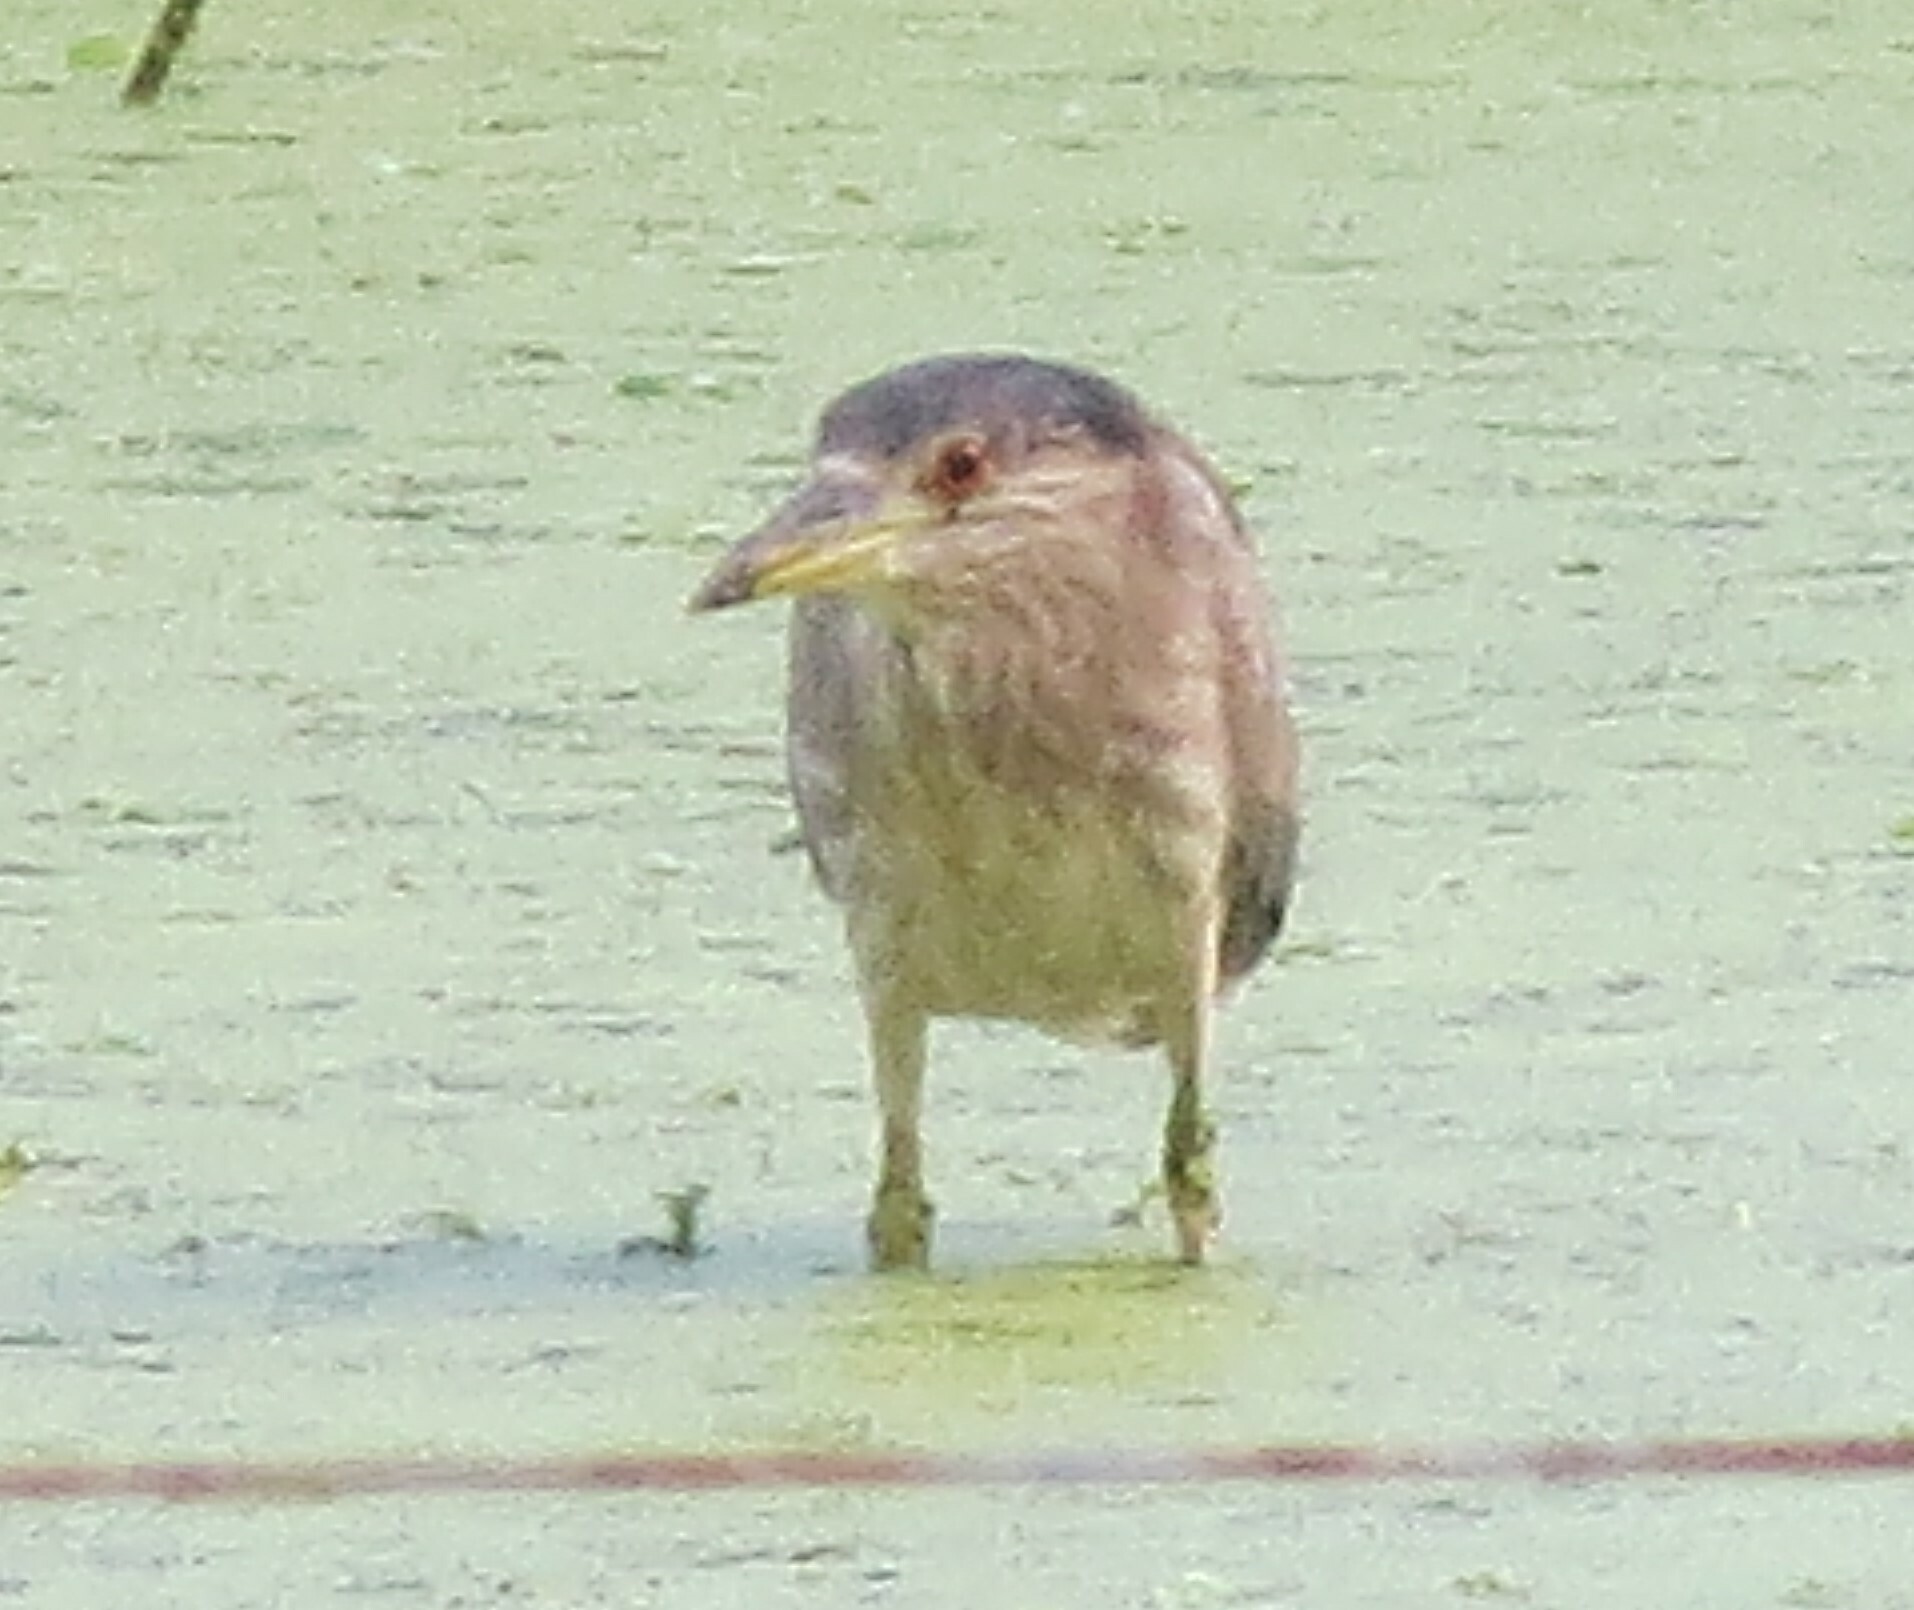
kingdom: Animalia
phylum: Chordata
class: Aves
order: Pelecaniformes
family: Ardeidae
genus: Nycticorax
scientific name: Nycticorax nycticorax
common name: Black-crowned night heron
